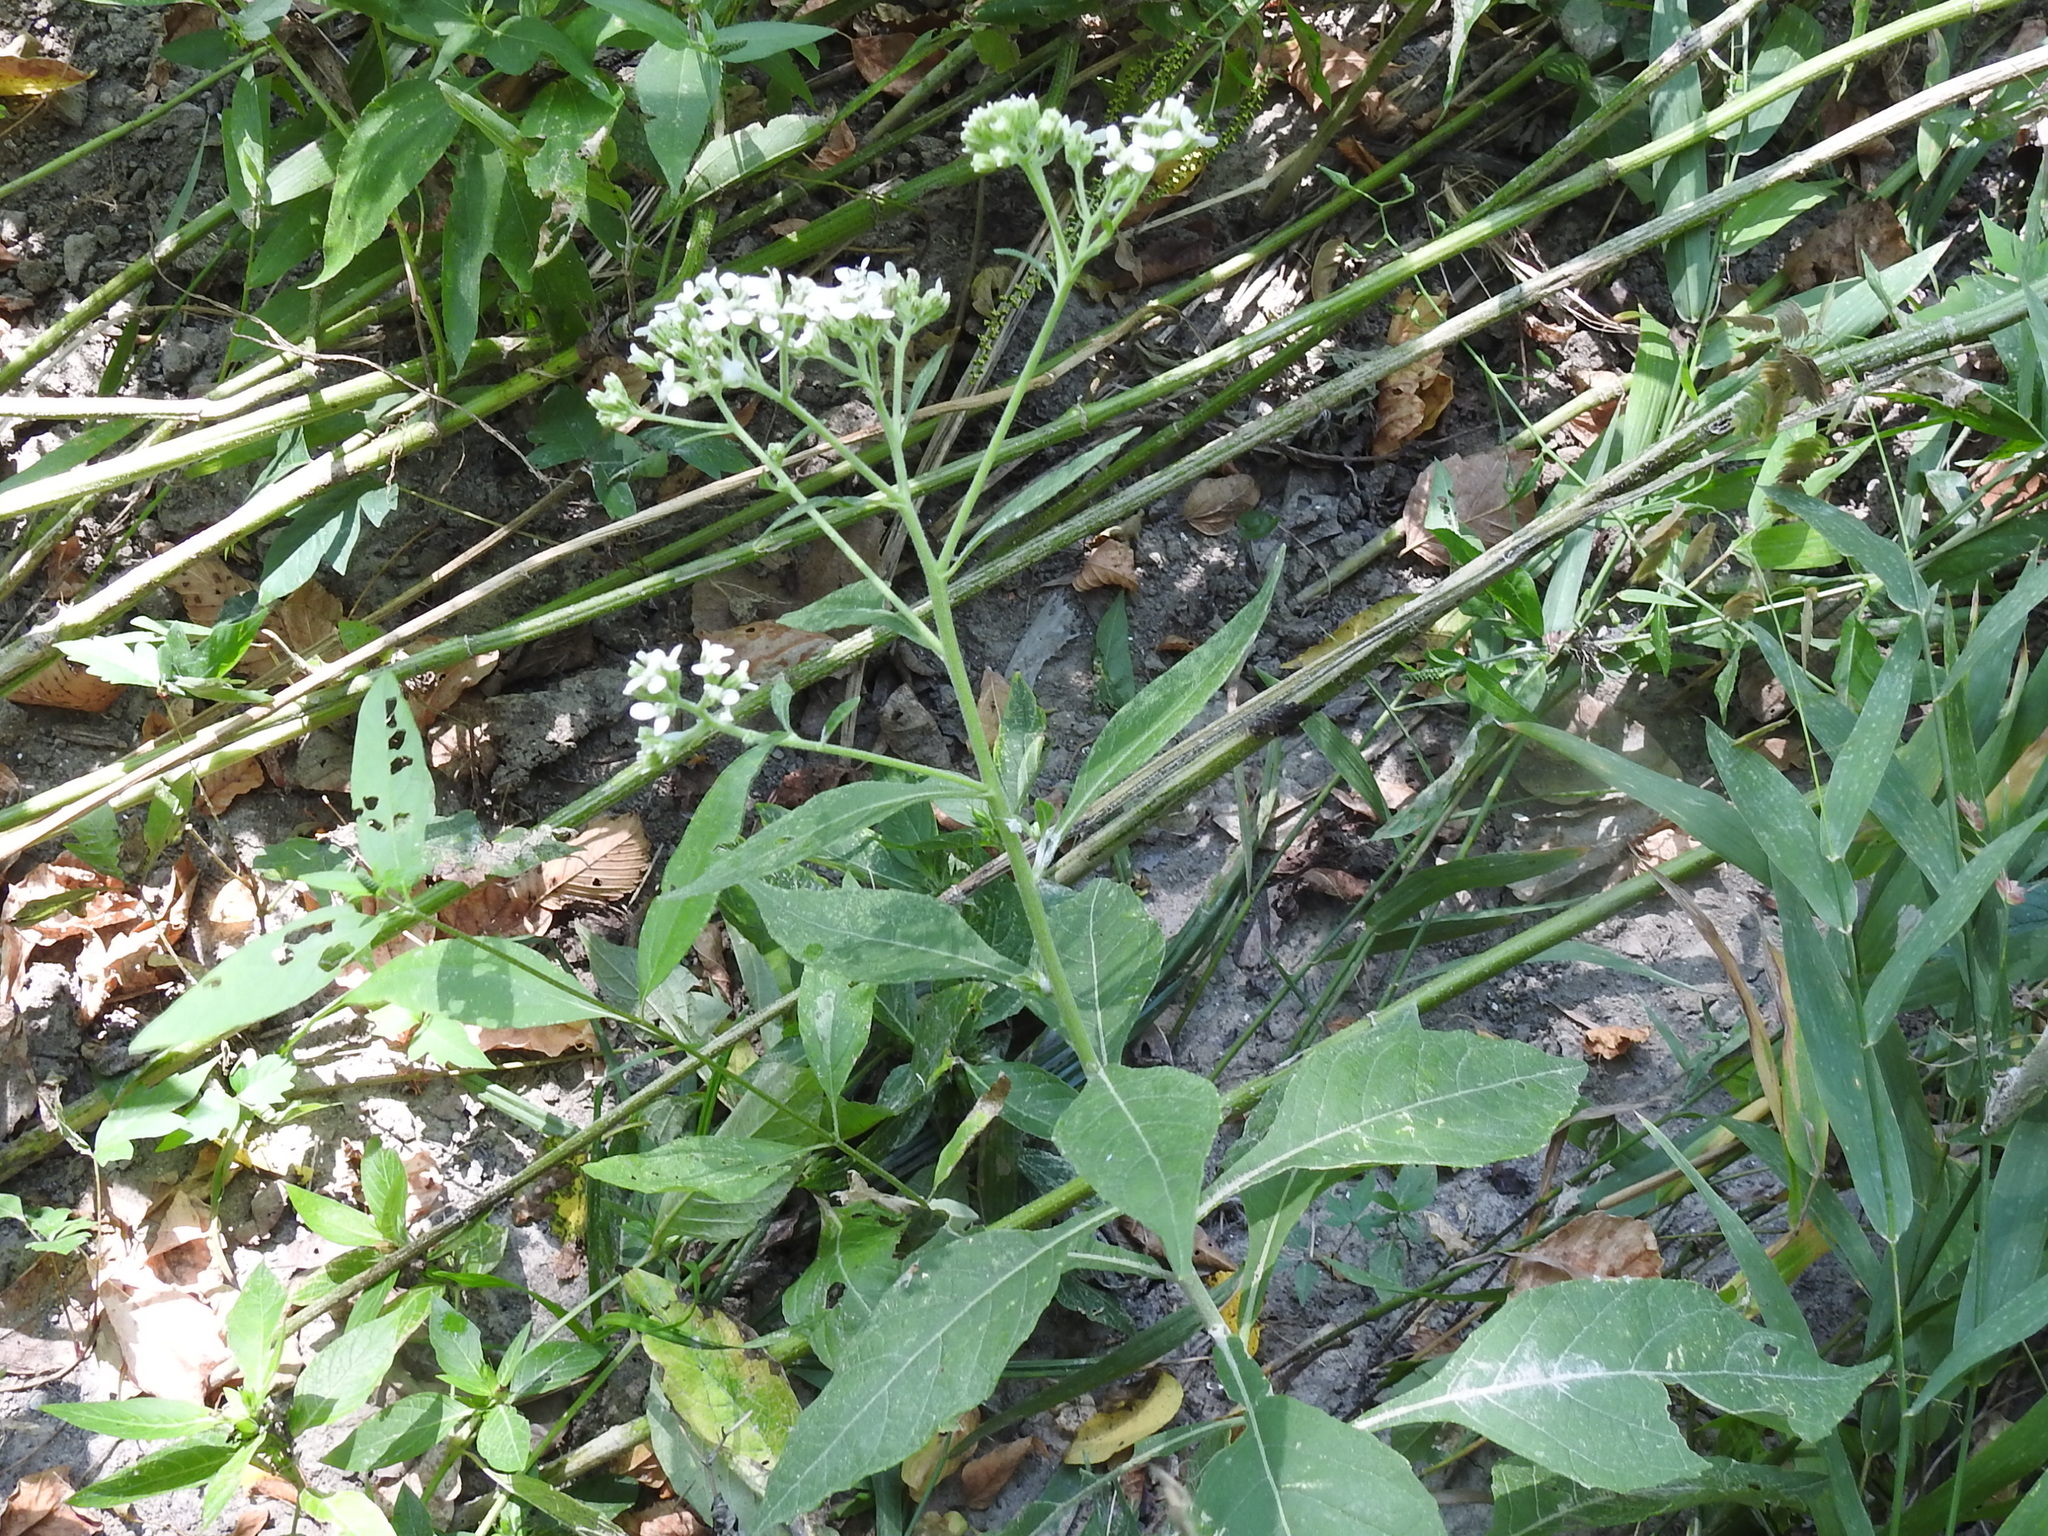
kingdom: Plantae
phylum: Tracheophyta
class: Magnoliopsida
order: Asterales
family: Asteraceae
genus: Verbesina
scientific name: Verbesina virginica
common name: Frostweed
